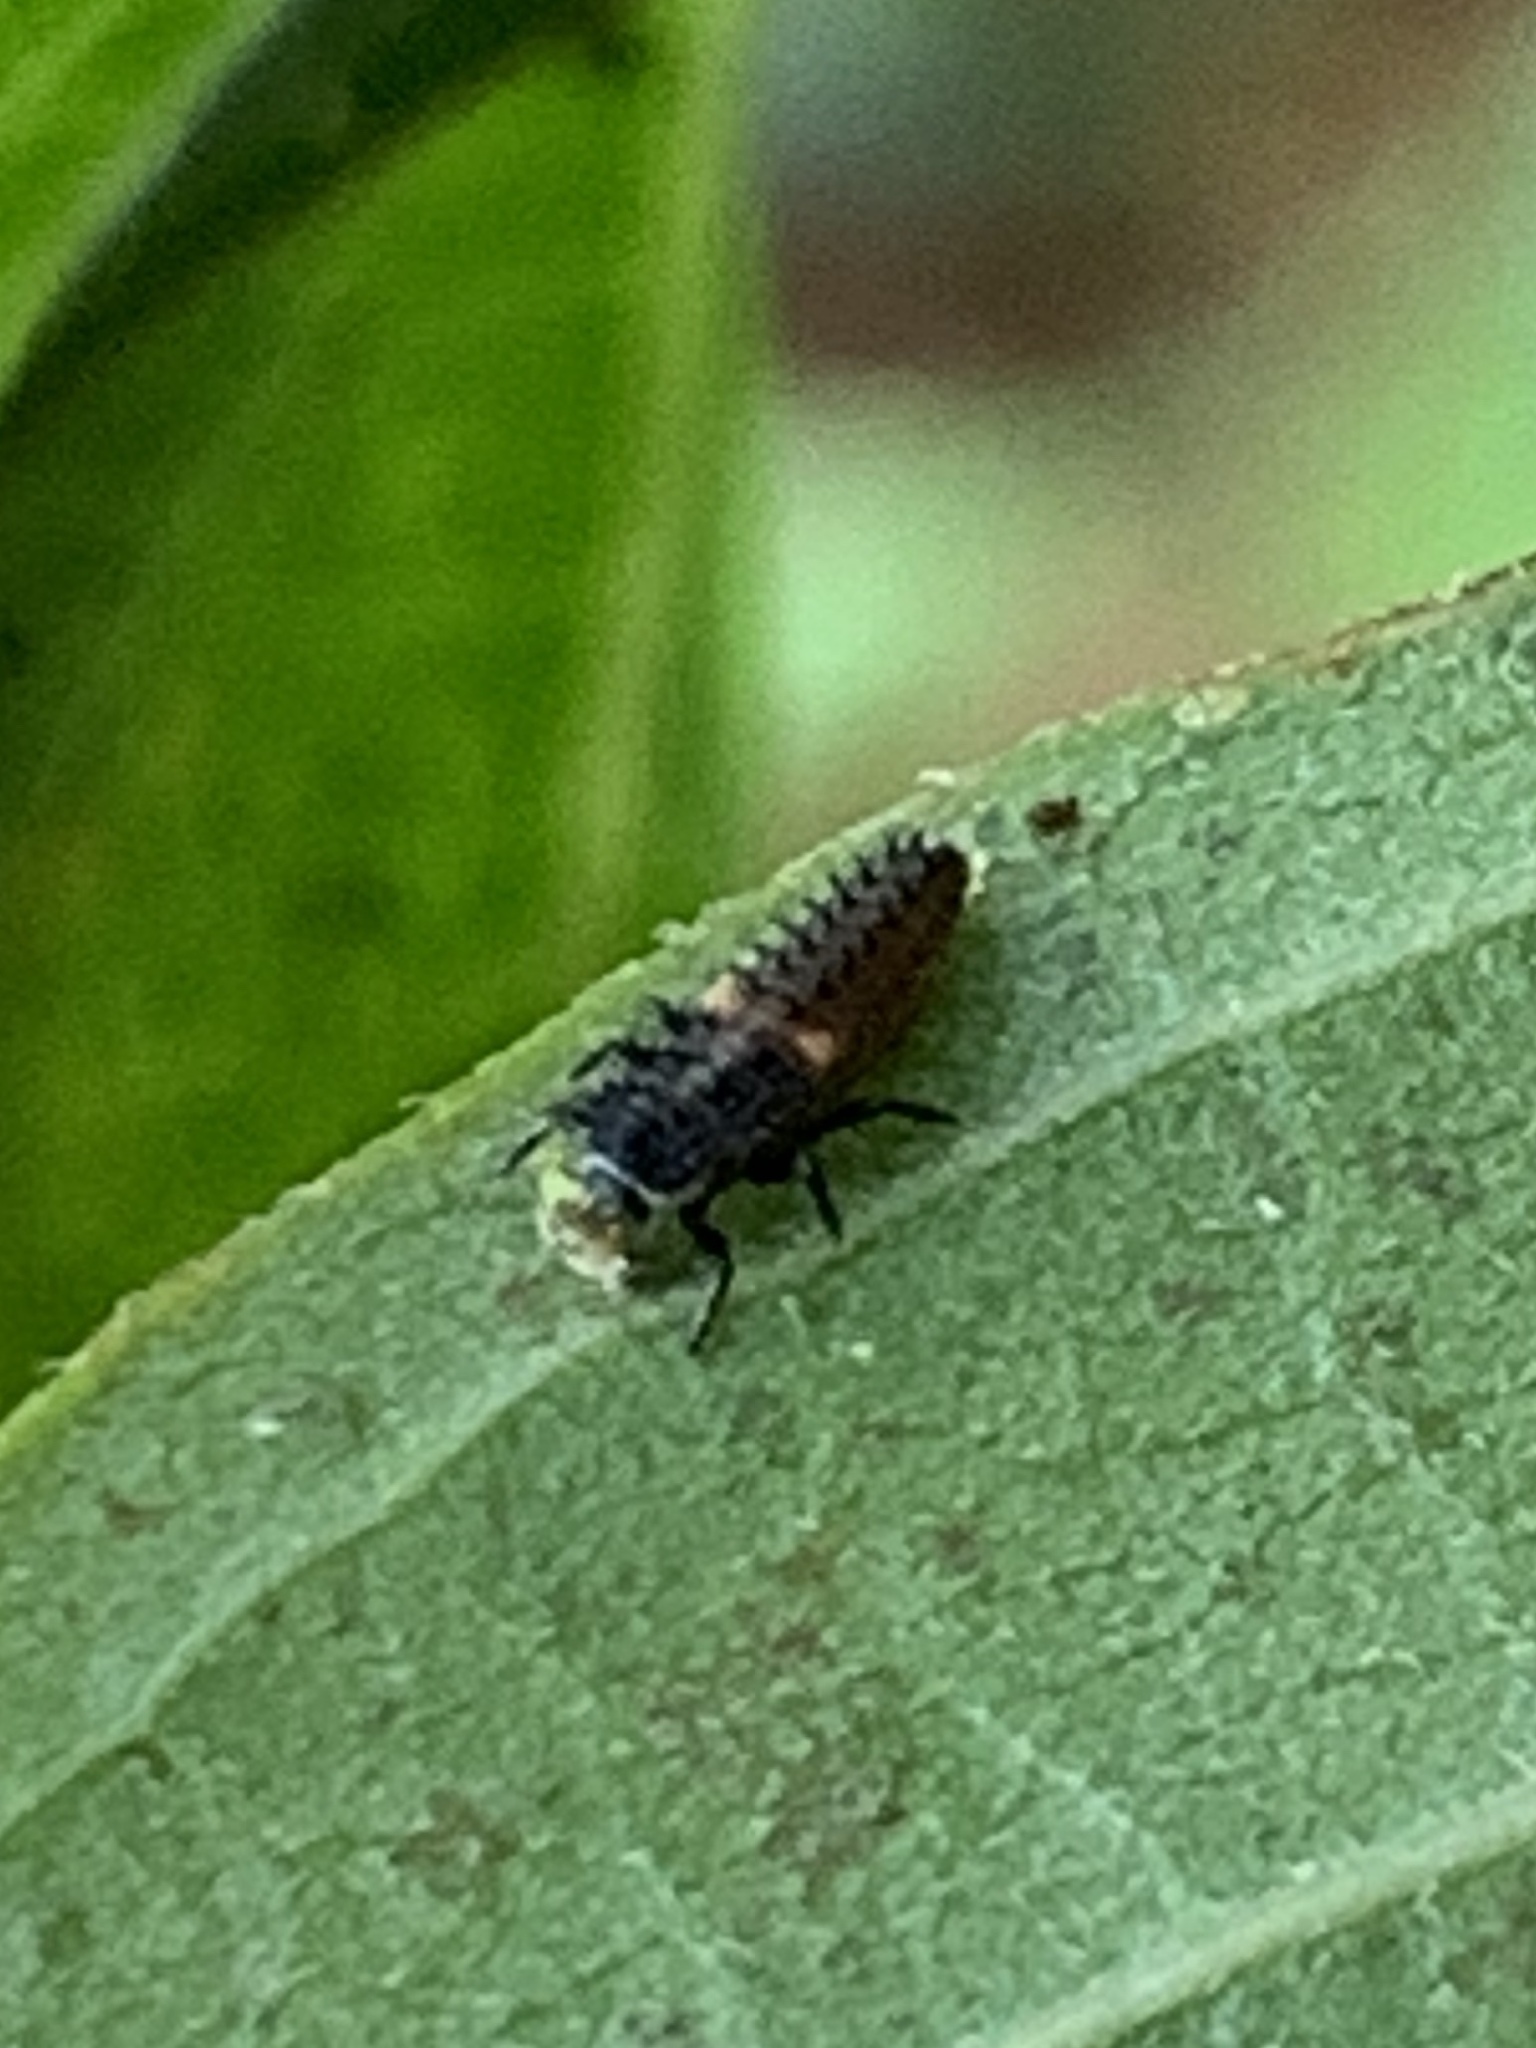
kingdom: Animalia
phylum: Arthropoda
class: Insecta
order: Coleoptera
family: Coccinellidae
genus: Harmonia
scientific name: Harmonia axyridis
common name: Harlequin ladybird
